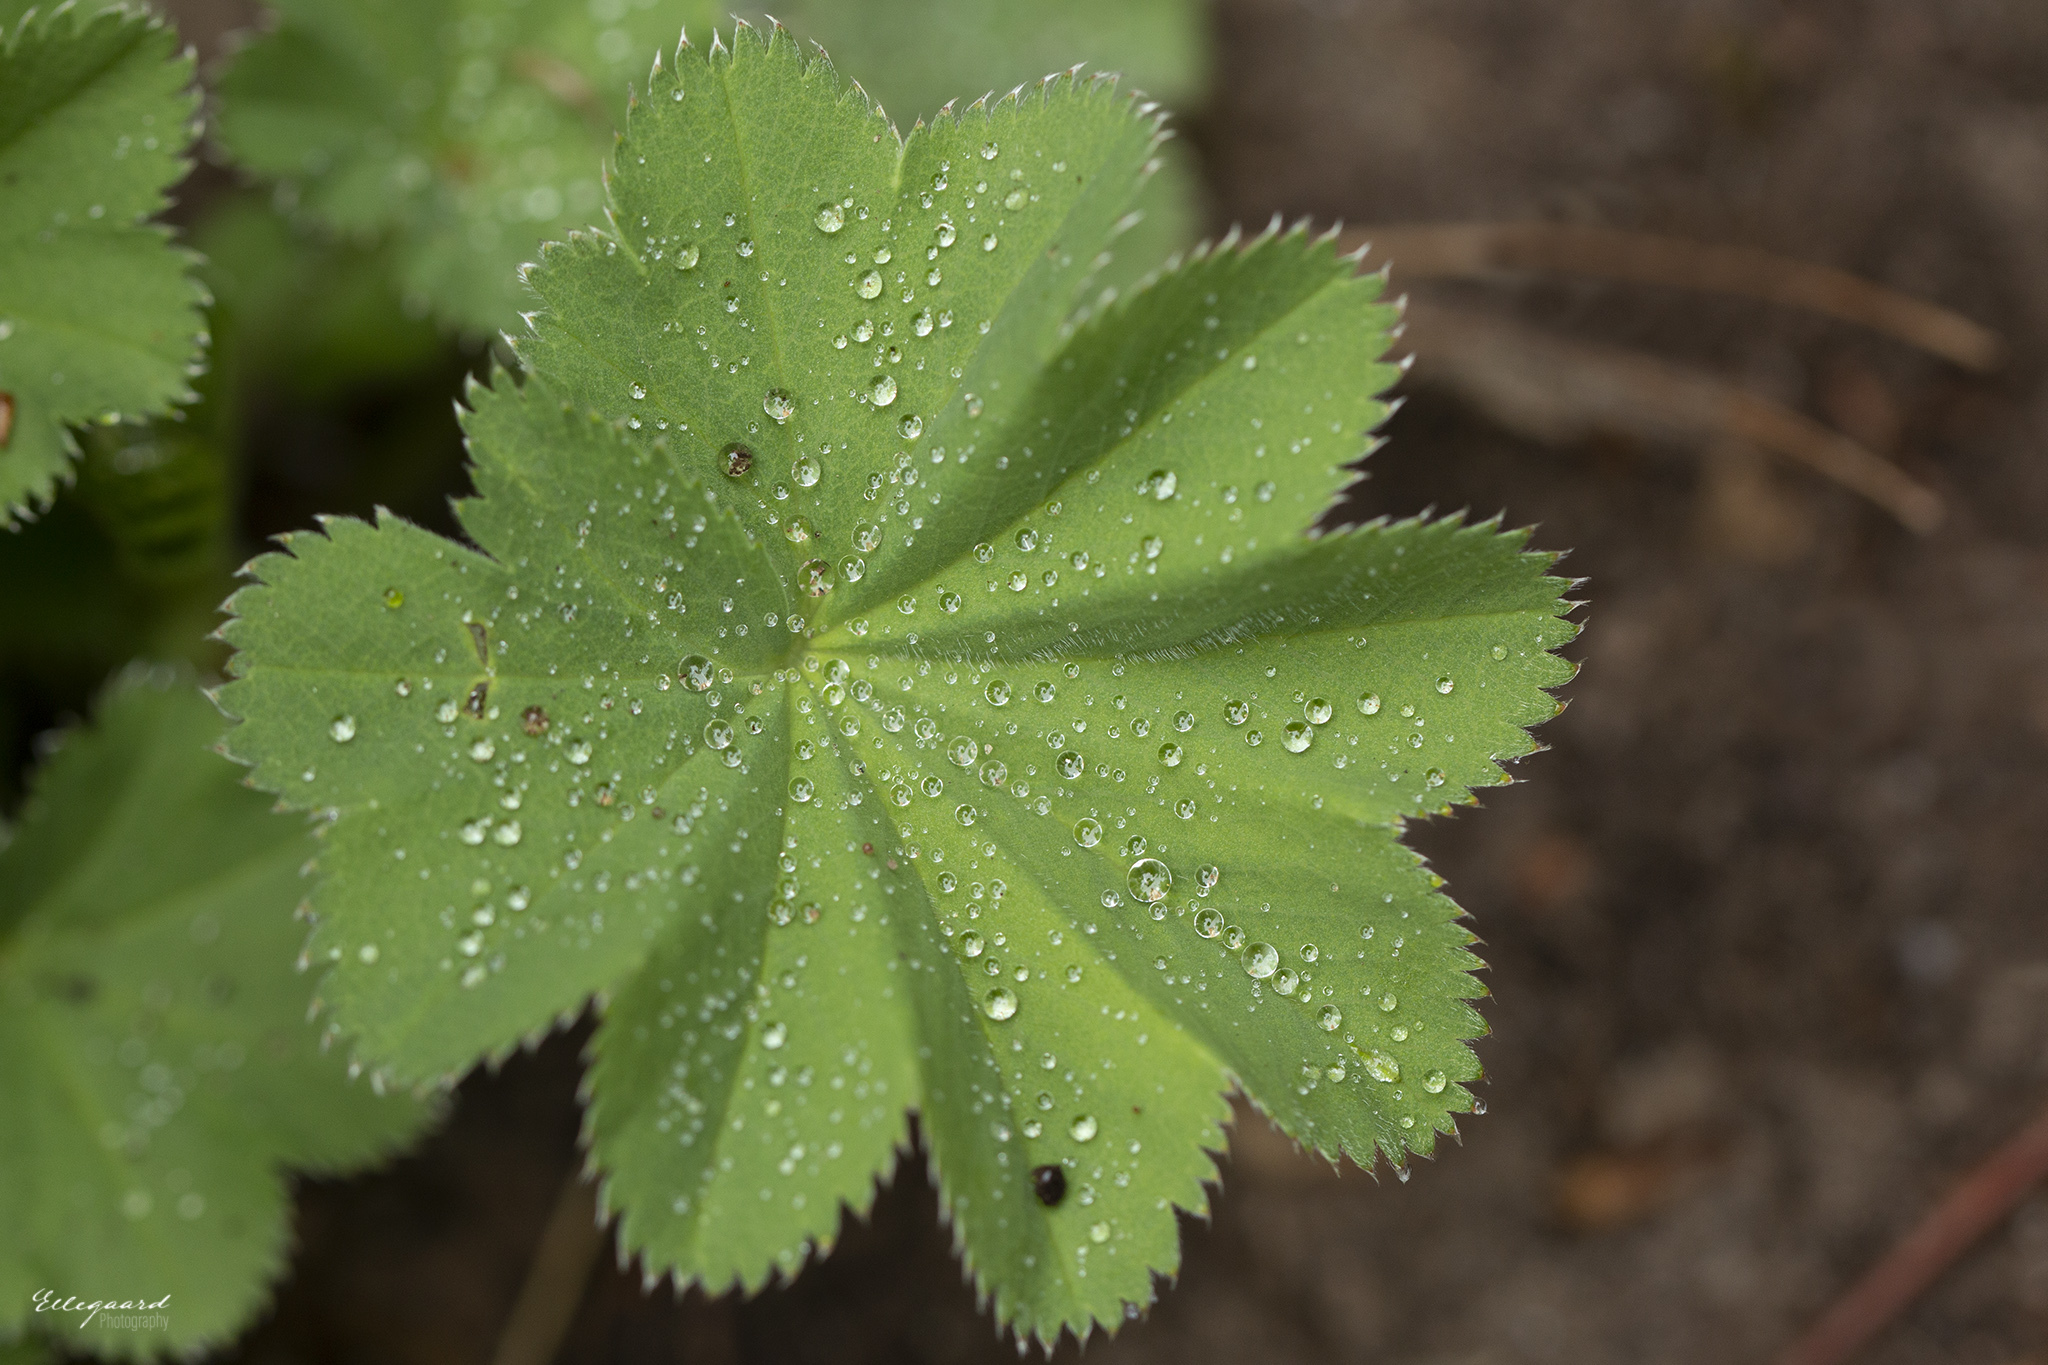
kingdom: Plantae
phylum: Tracheophyta
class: Magnoliopsida
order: Rosales
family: Rosaceae
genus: Alchemilla
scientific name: Alchemilla mollis
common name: Lady's-mantle
